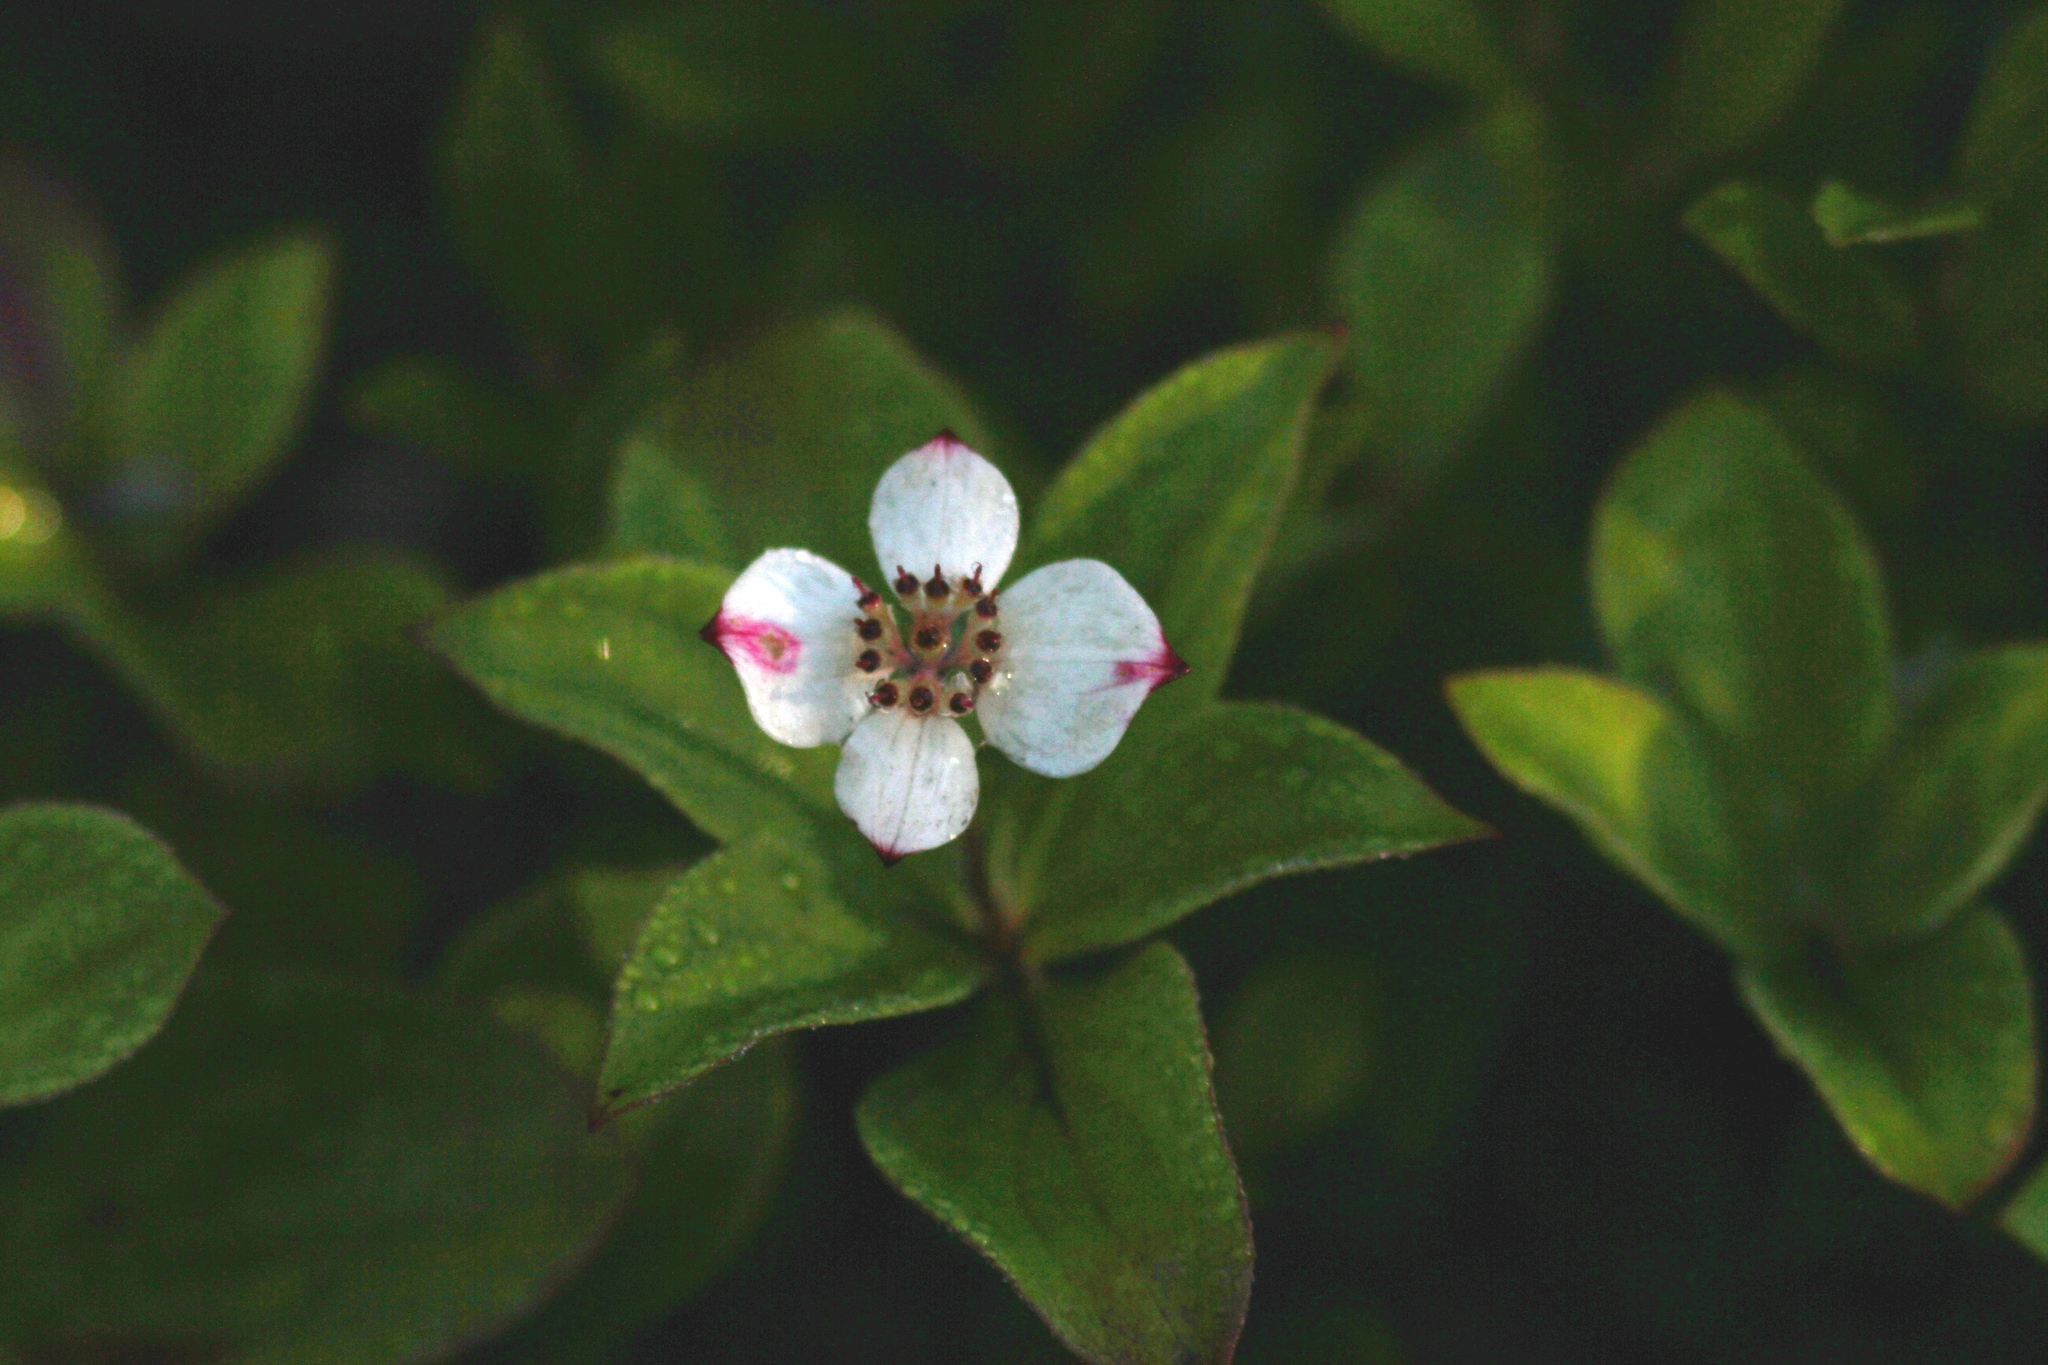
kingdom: Plantae
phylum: Tracheophyta
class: Magnoliopsida
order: Cornales
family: Cornaceae
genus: Cornus
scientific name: Cornus canadensis
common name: Creeping dogwood
